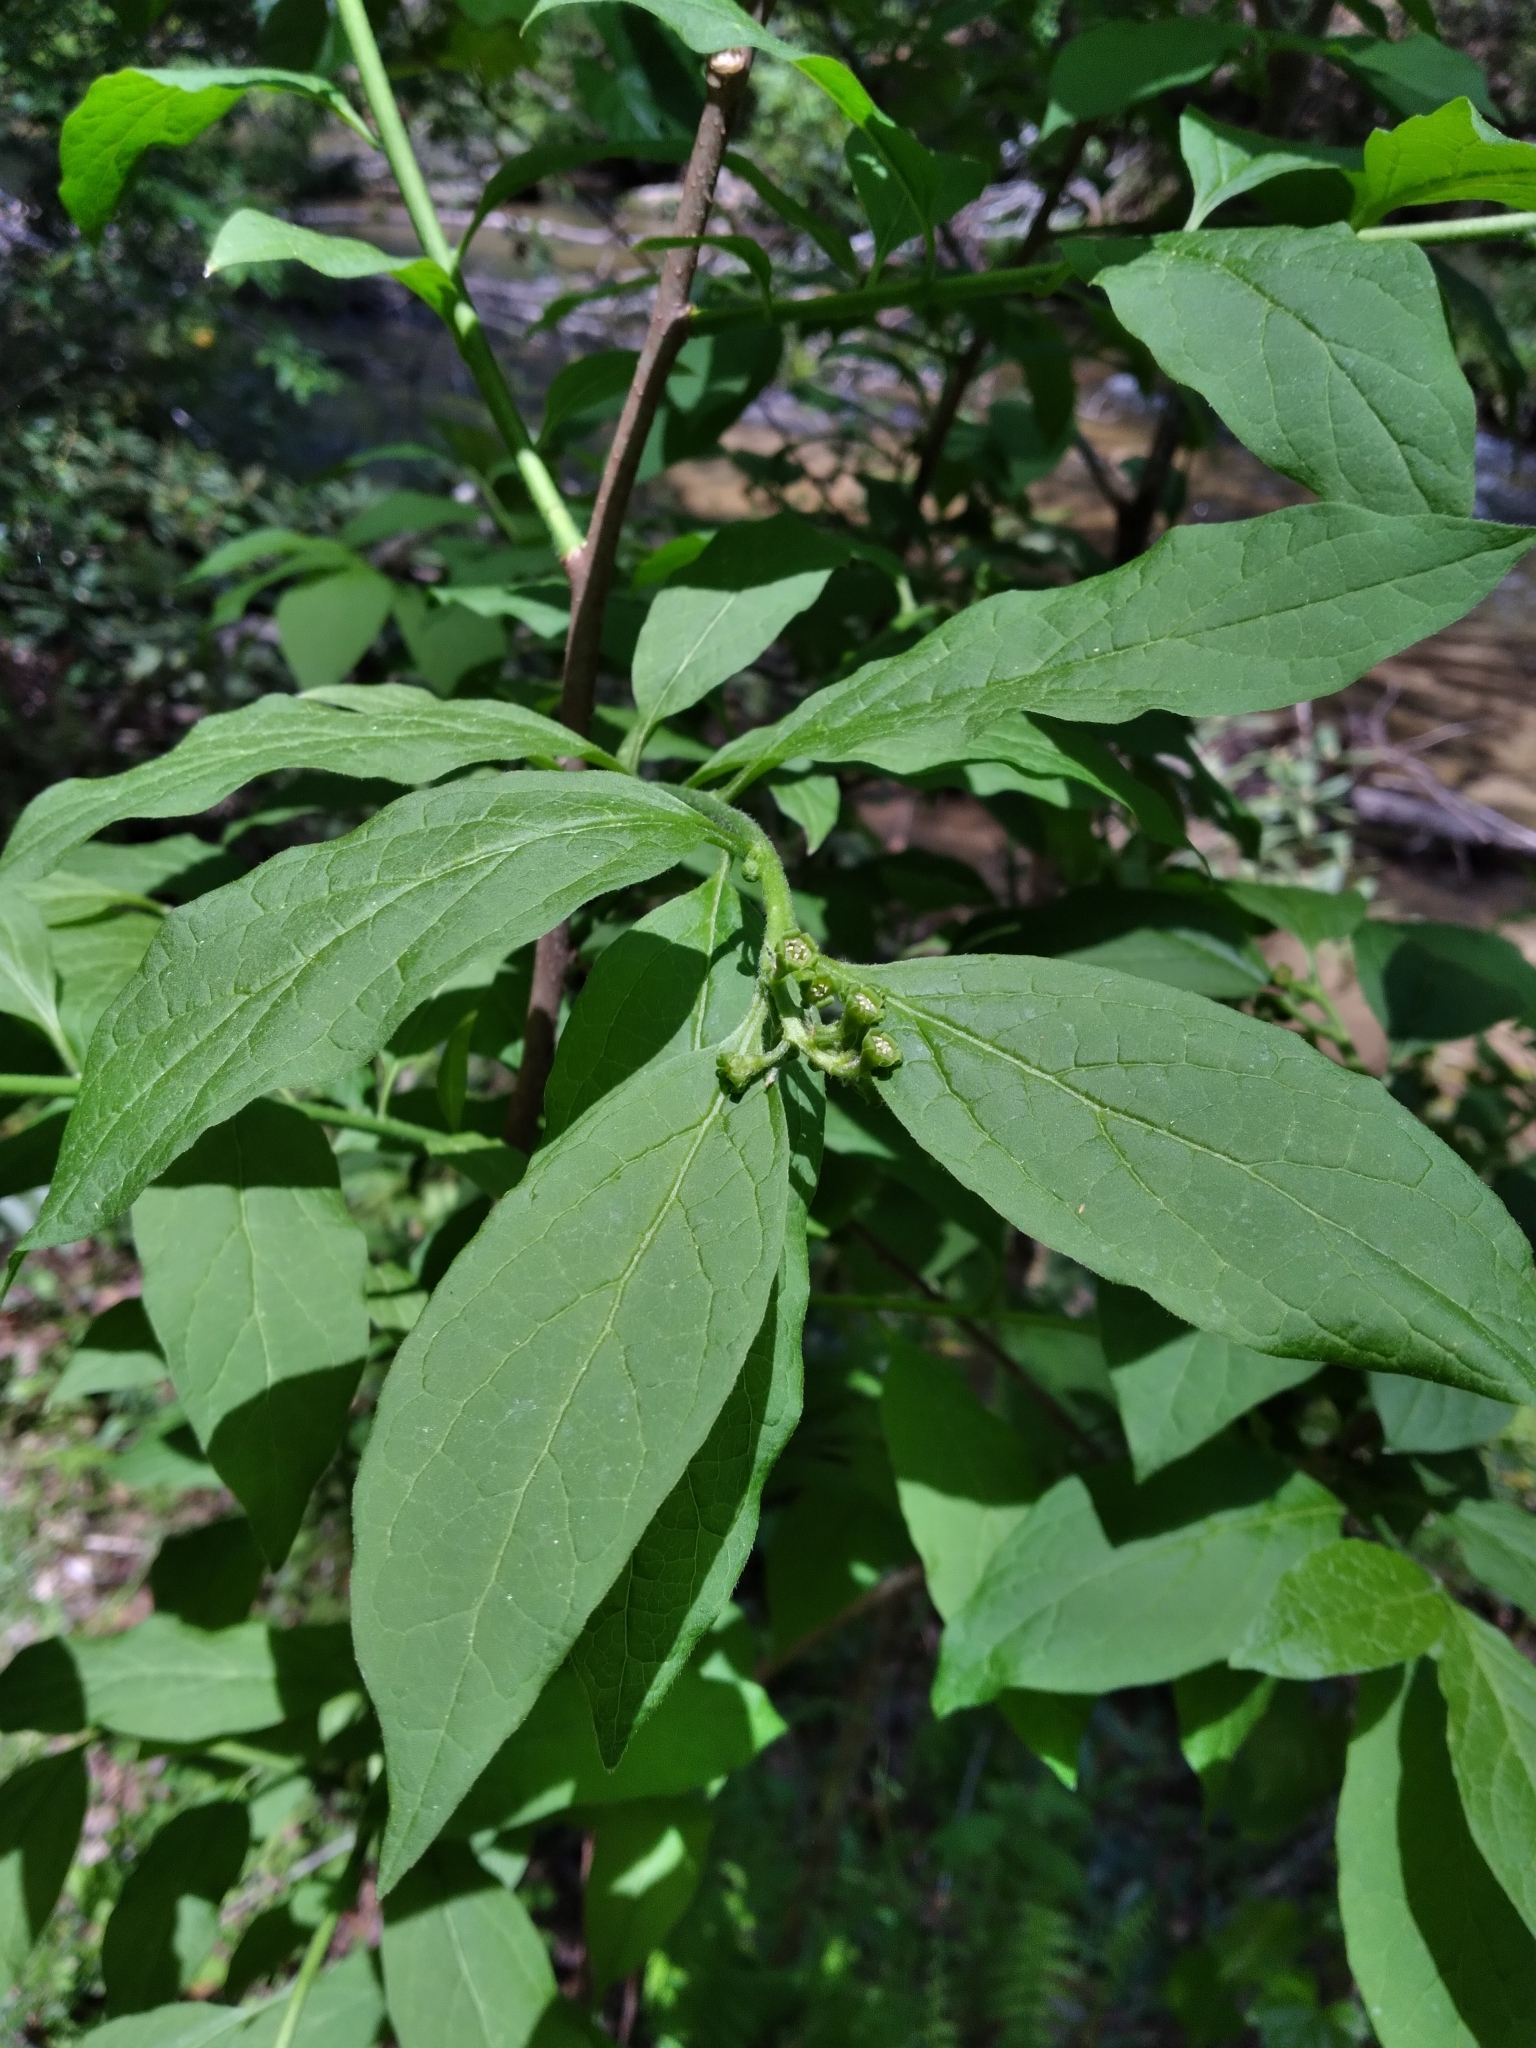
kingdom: Plantae
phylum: Tracheophyta
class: Magnoliopsida
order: Santalales
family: Cervantesiaceae
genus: Pyrularia
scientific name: Pyrularia pubera
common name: Oilnut
